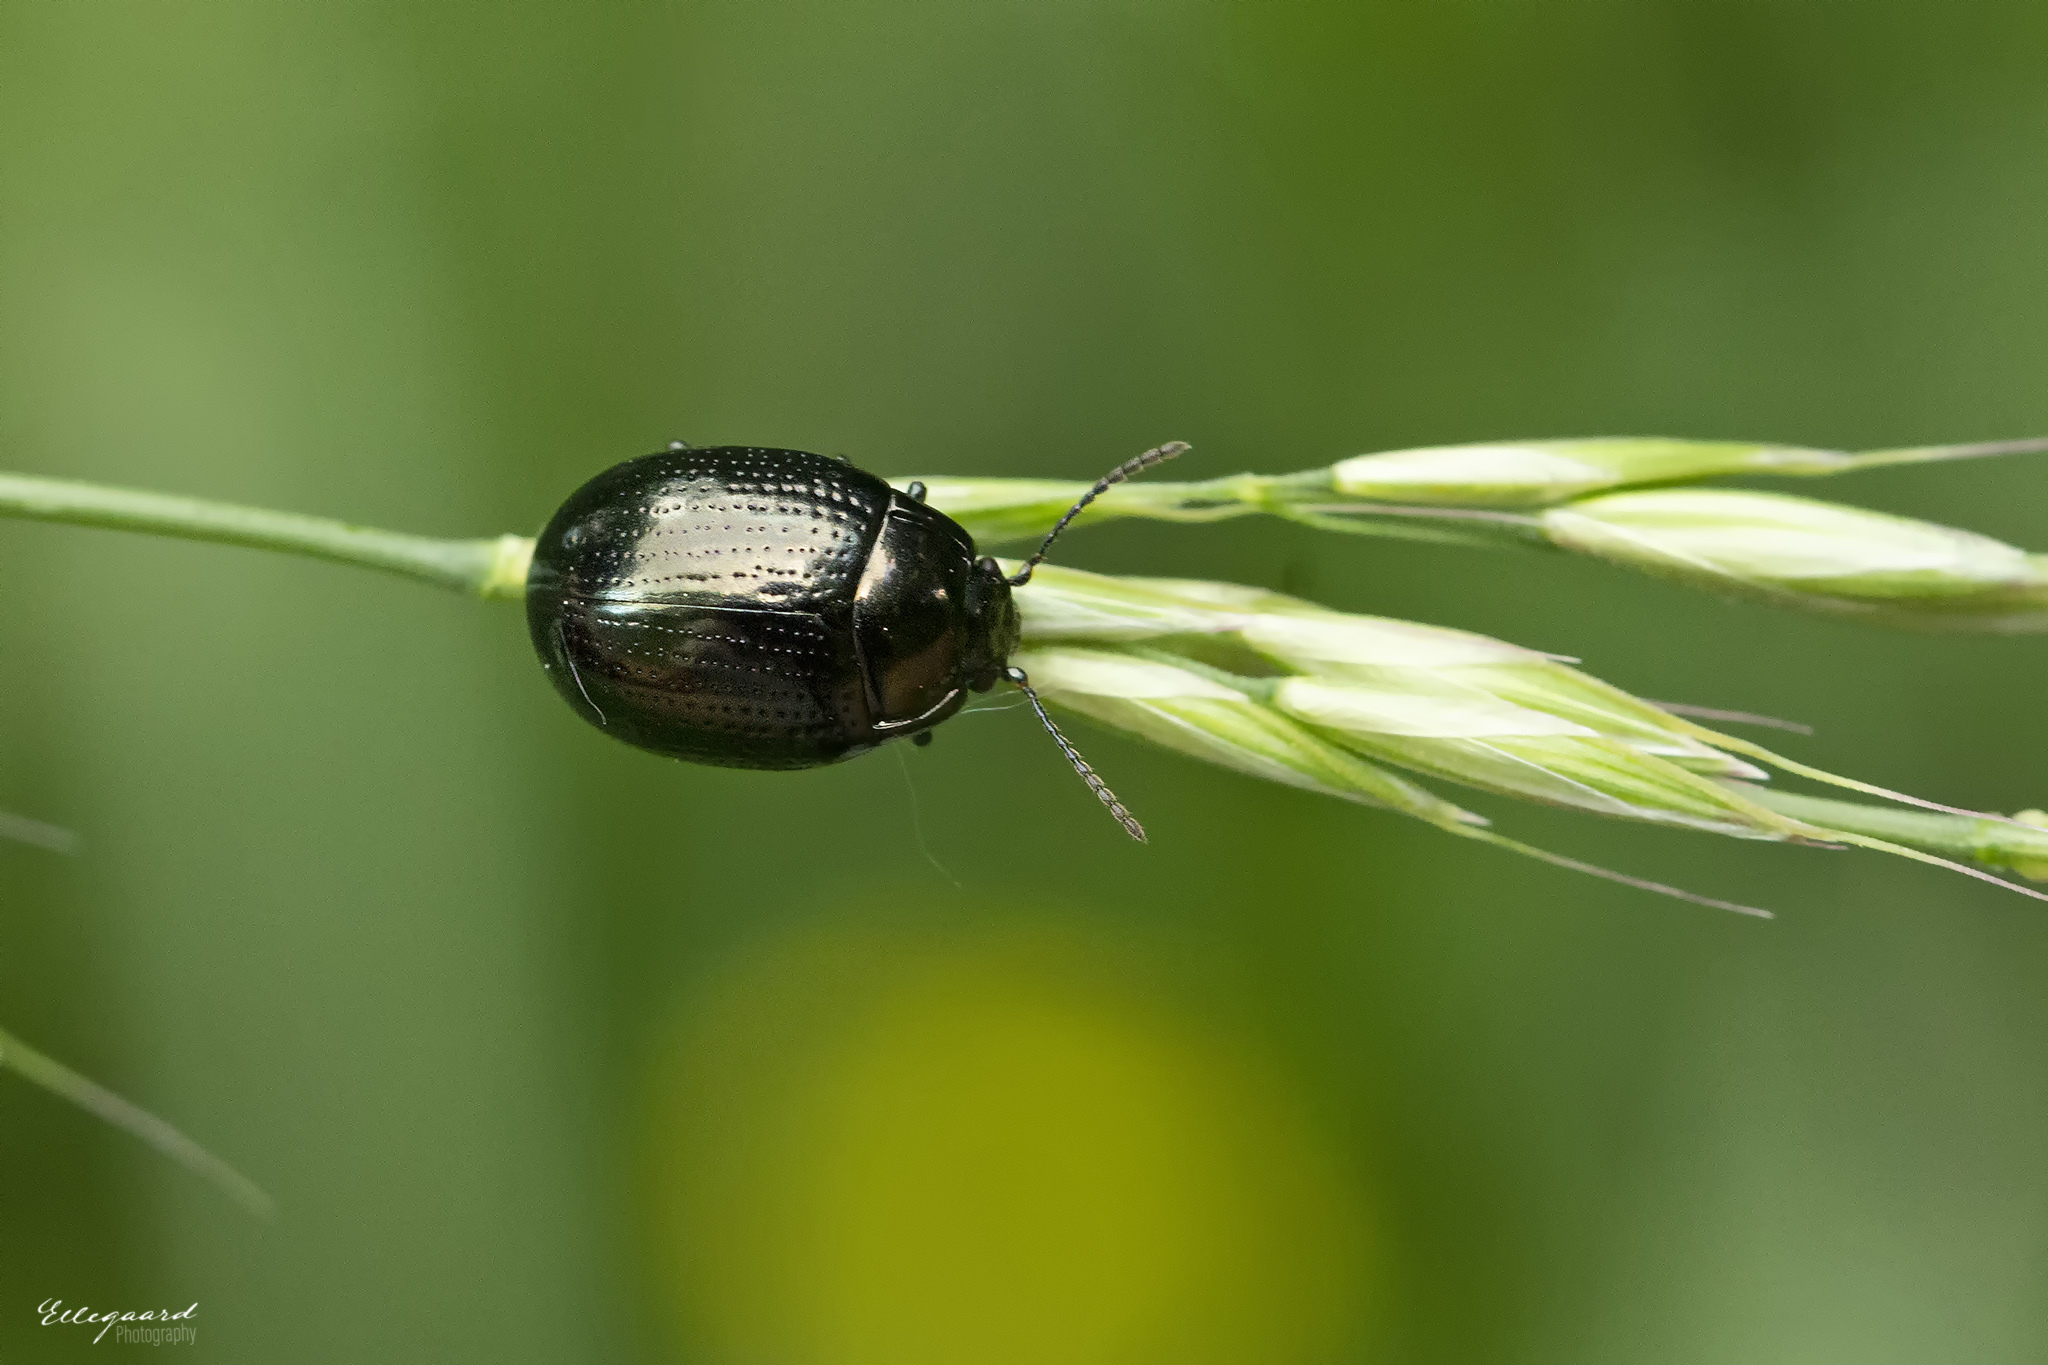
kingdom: Animalia
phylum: Arthropoda
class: Insecta
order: Coleoptera
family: Chrysomelidae
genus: Chrysolina
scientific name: Chrysolina oricalcia
